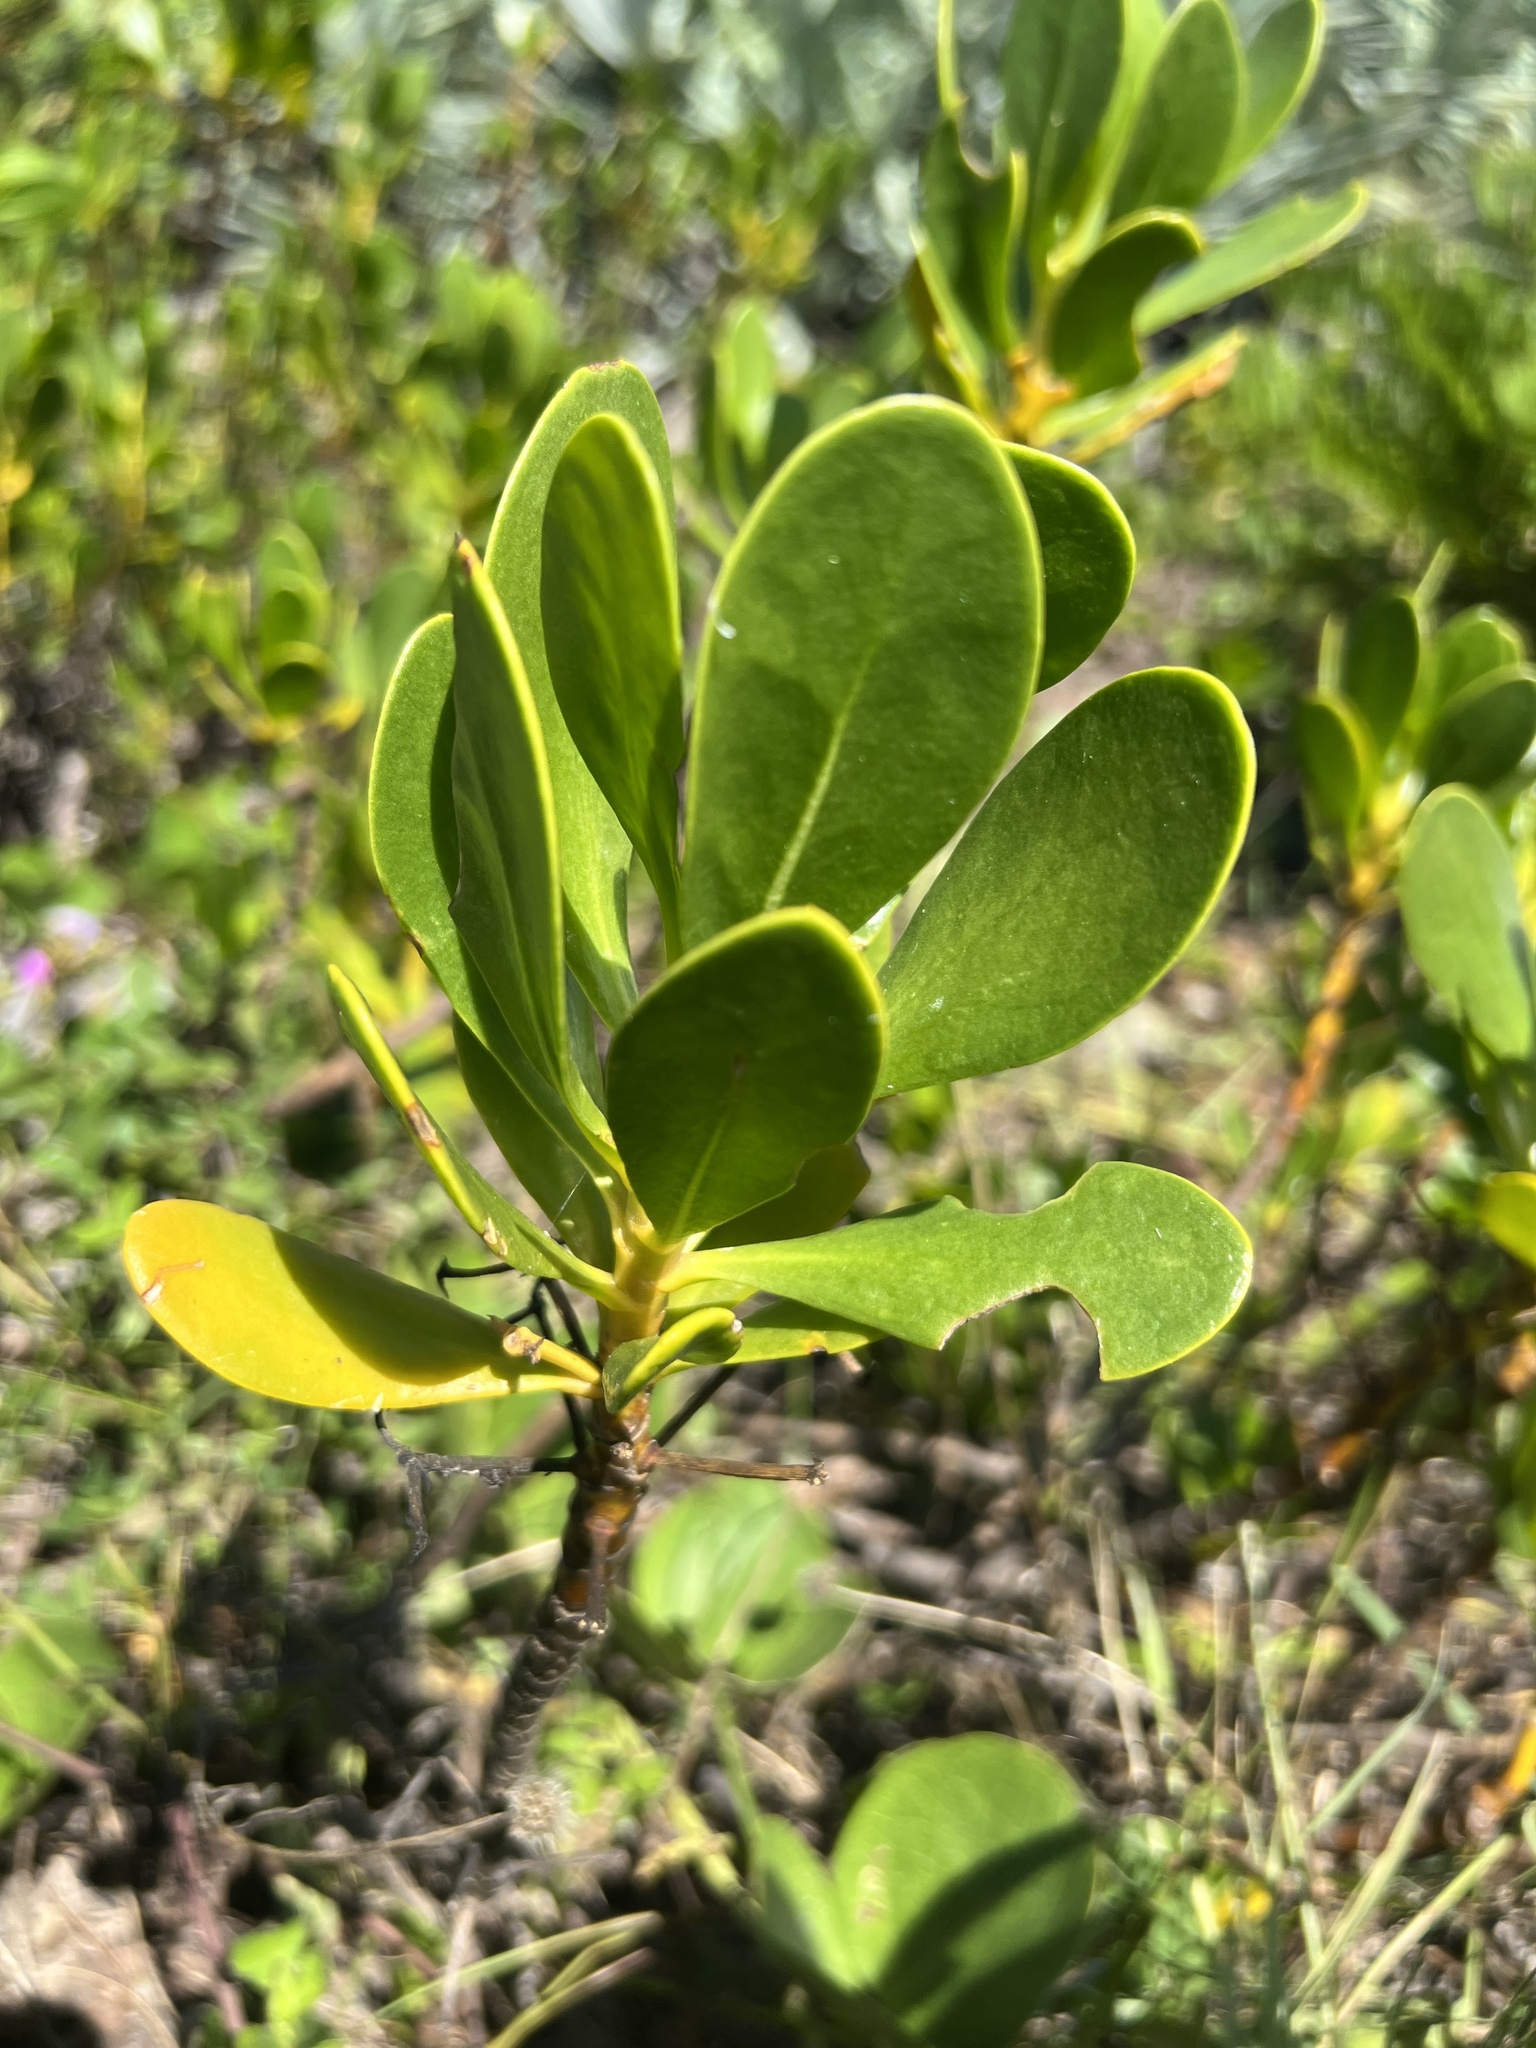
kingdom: Plantae
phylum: Tracheophyta
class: Magnoliopsida
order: Asterales
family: Goodeniaceae
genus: Scaevola
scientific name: Scaevola plumieri
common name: Gull feed
